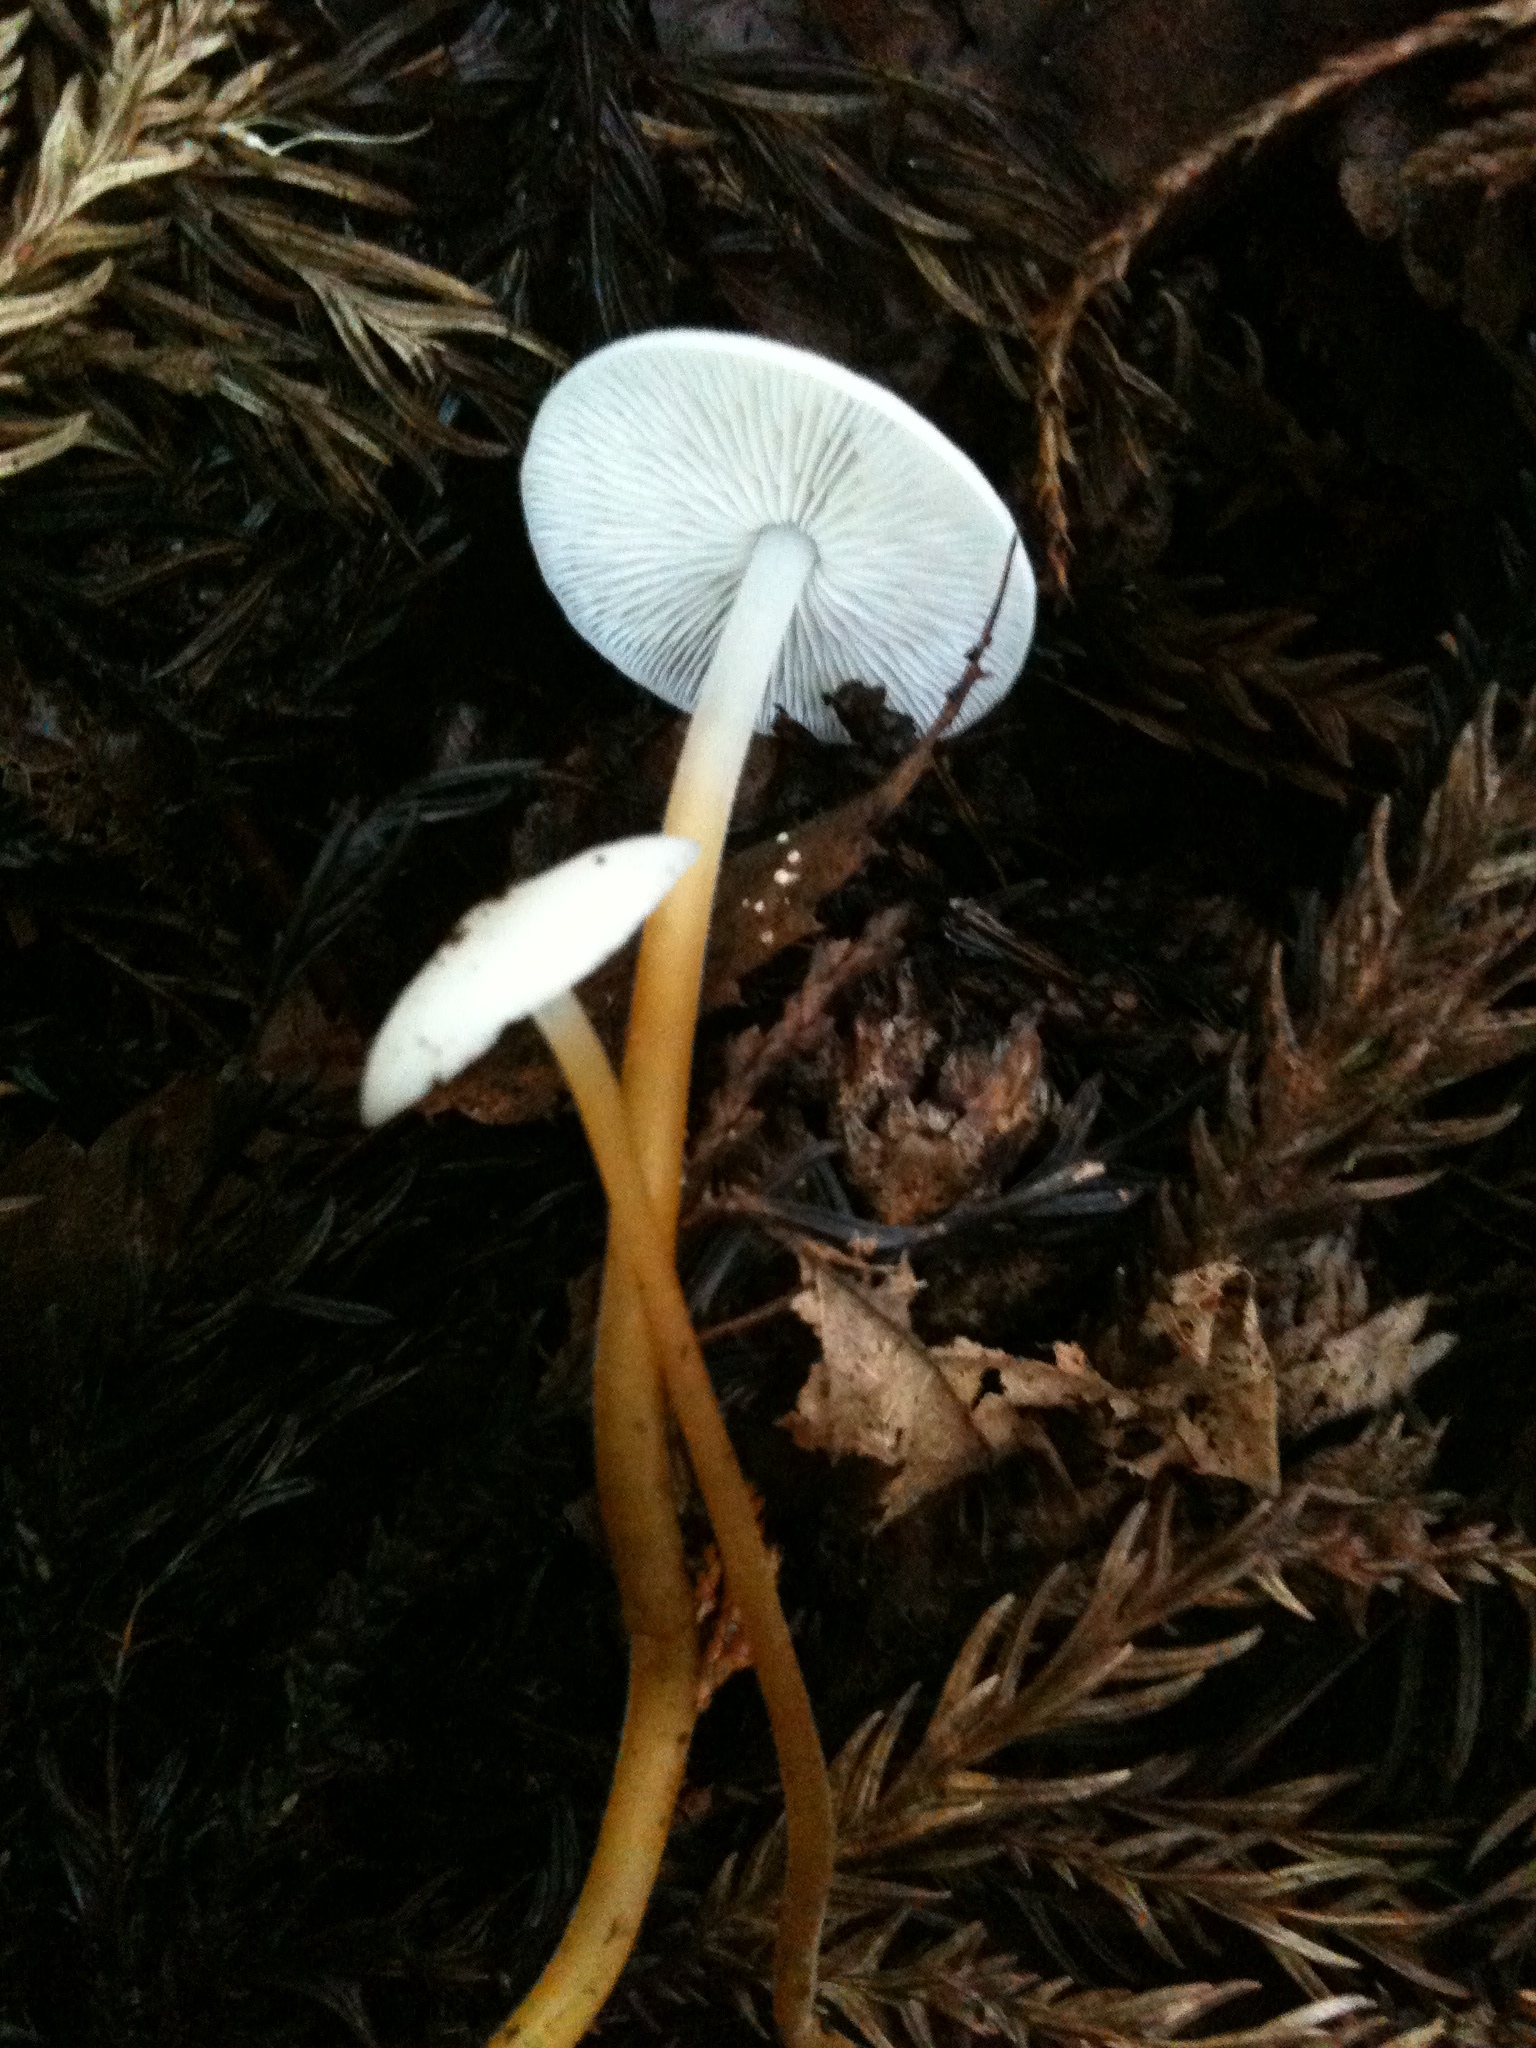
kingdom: Fungi
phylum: Basidiomycota
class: Agaricomycetes
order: Agaricales
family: Physalacriaceae
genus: Strobilurus
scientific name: Strobilurus ohshimae
